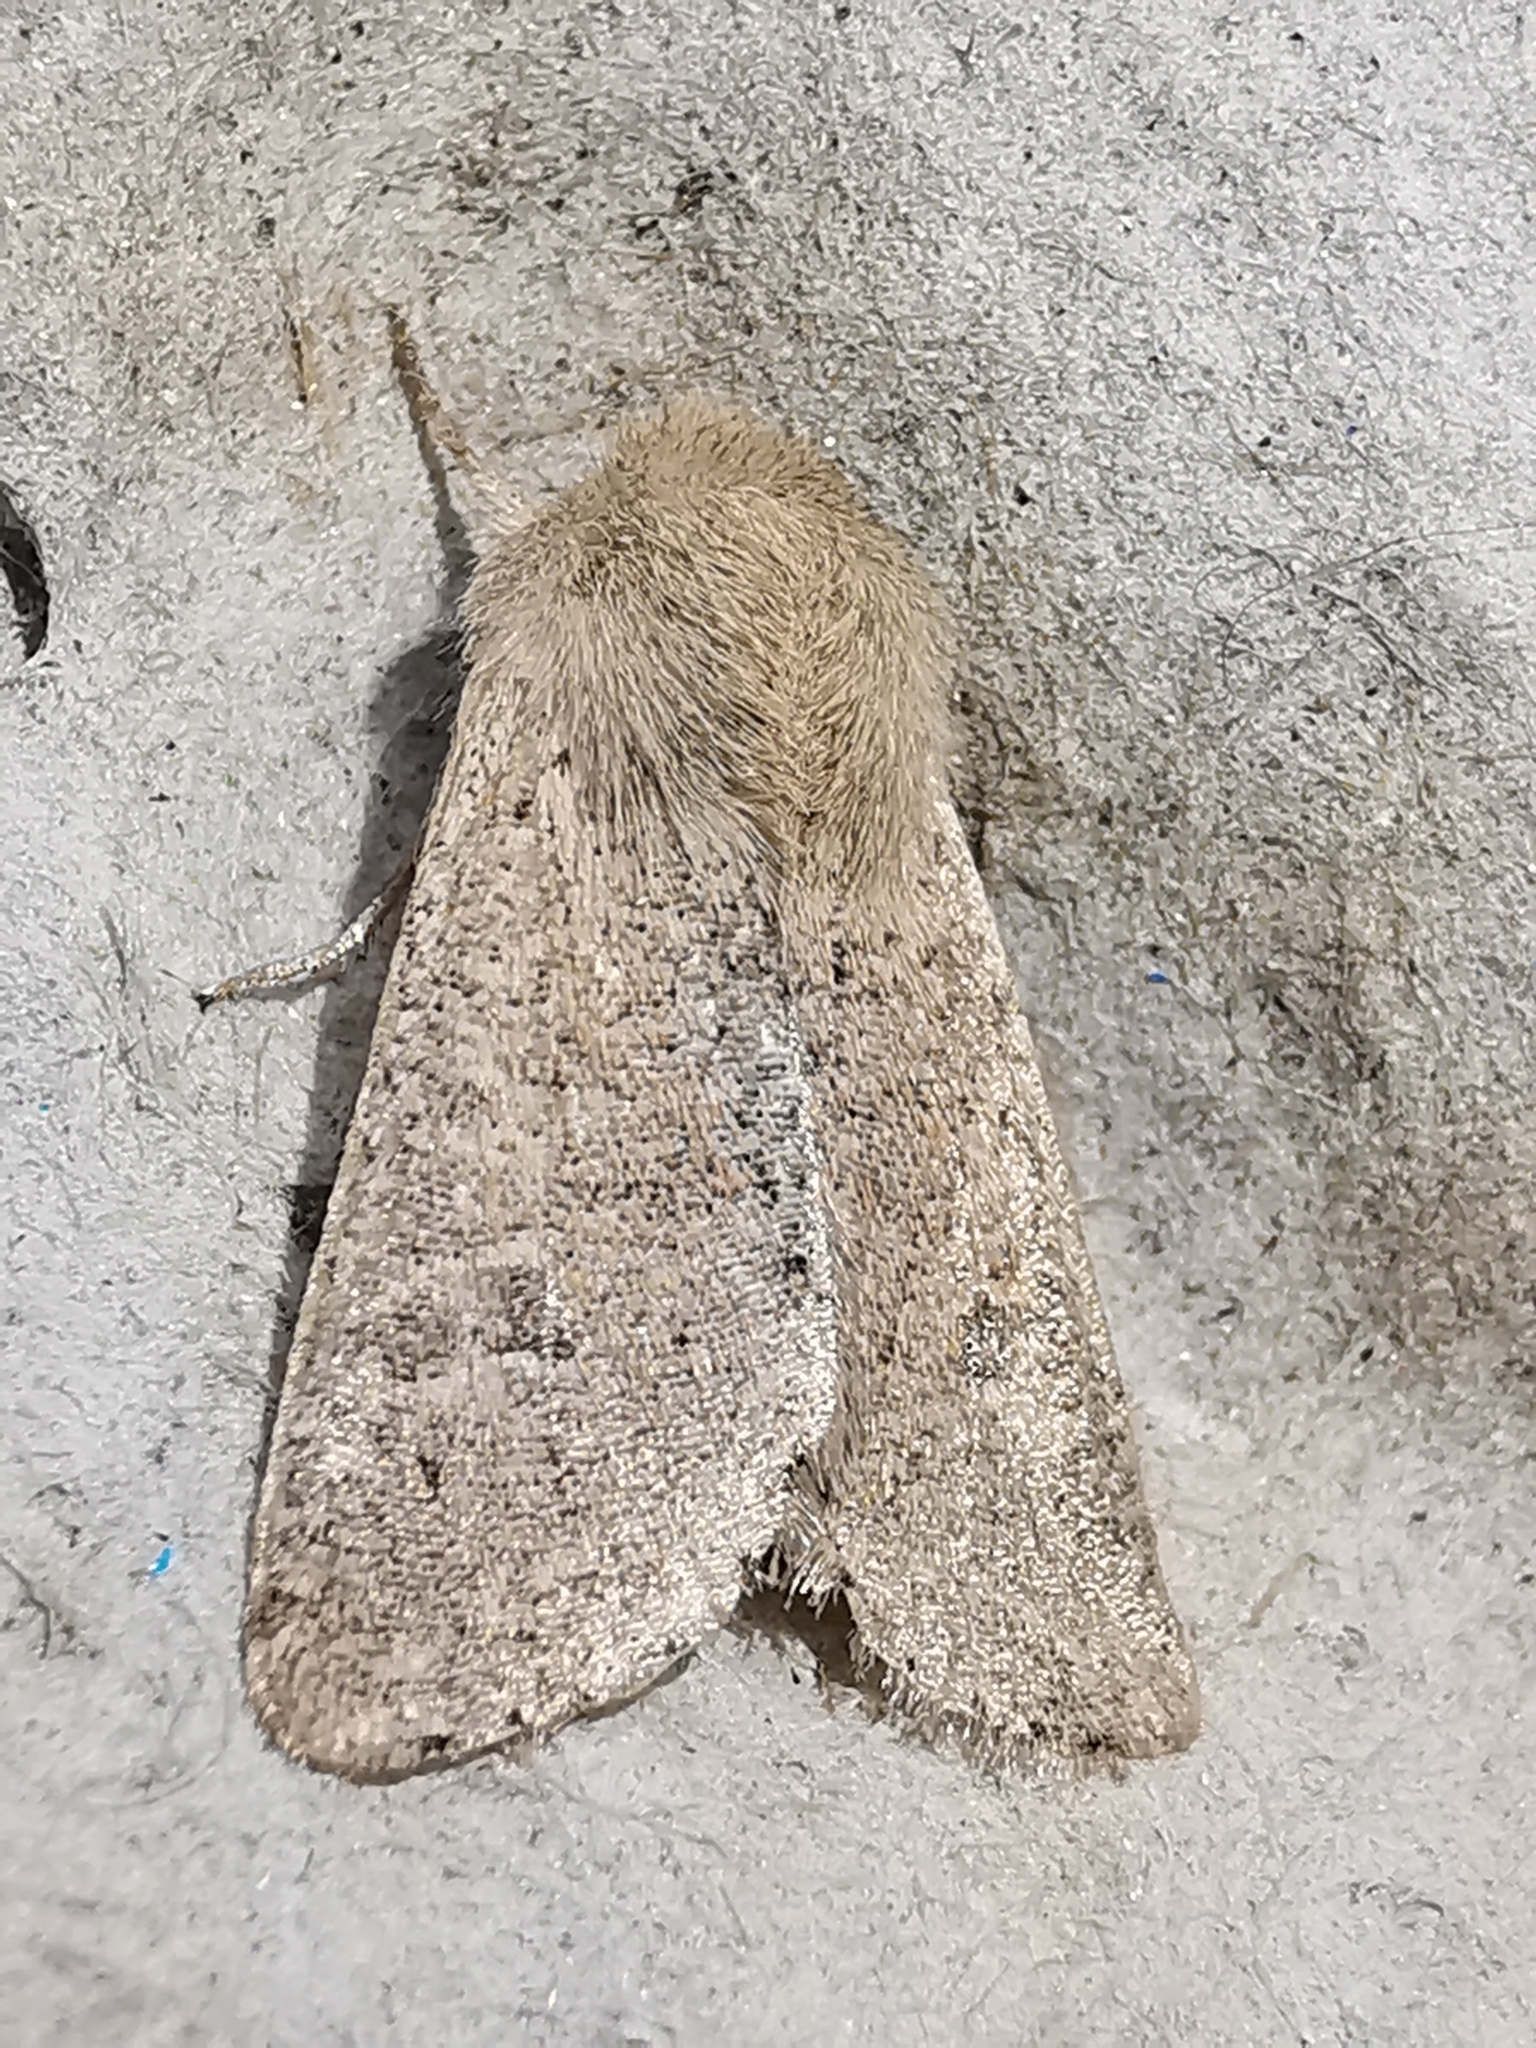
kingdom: Animalia
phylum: Arthropoda
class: Insecta
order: Lepidoptera
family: Noctuidae
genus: Orthosia
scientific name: Orthosia cruda
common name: Small quaker
